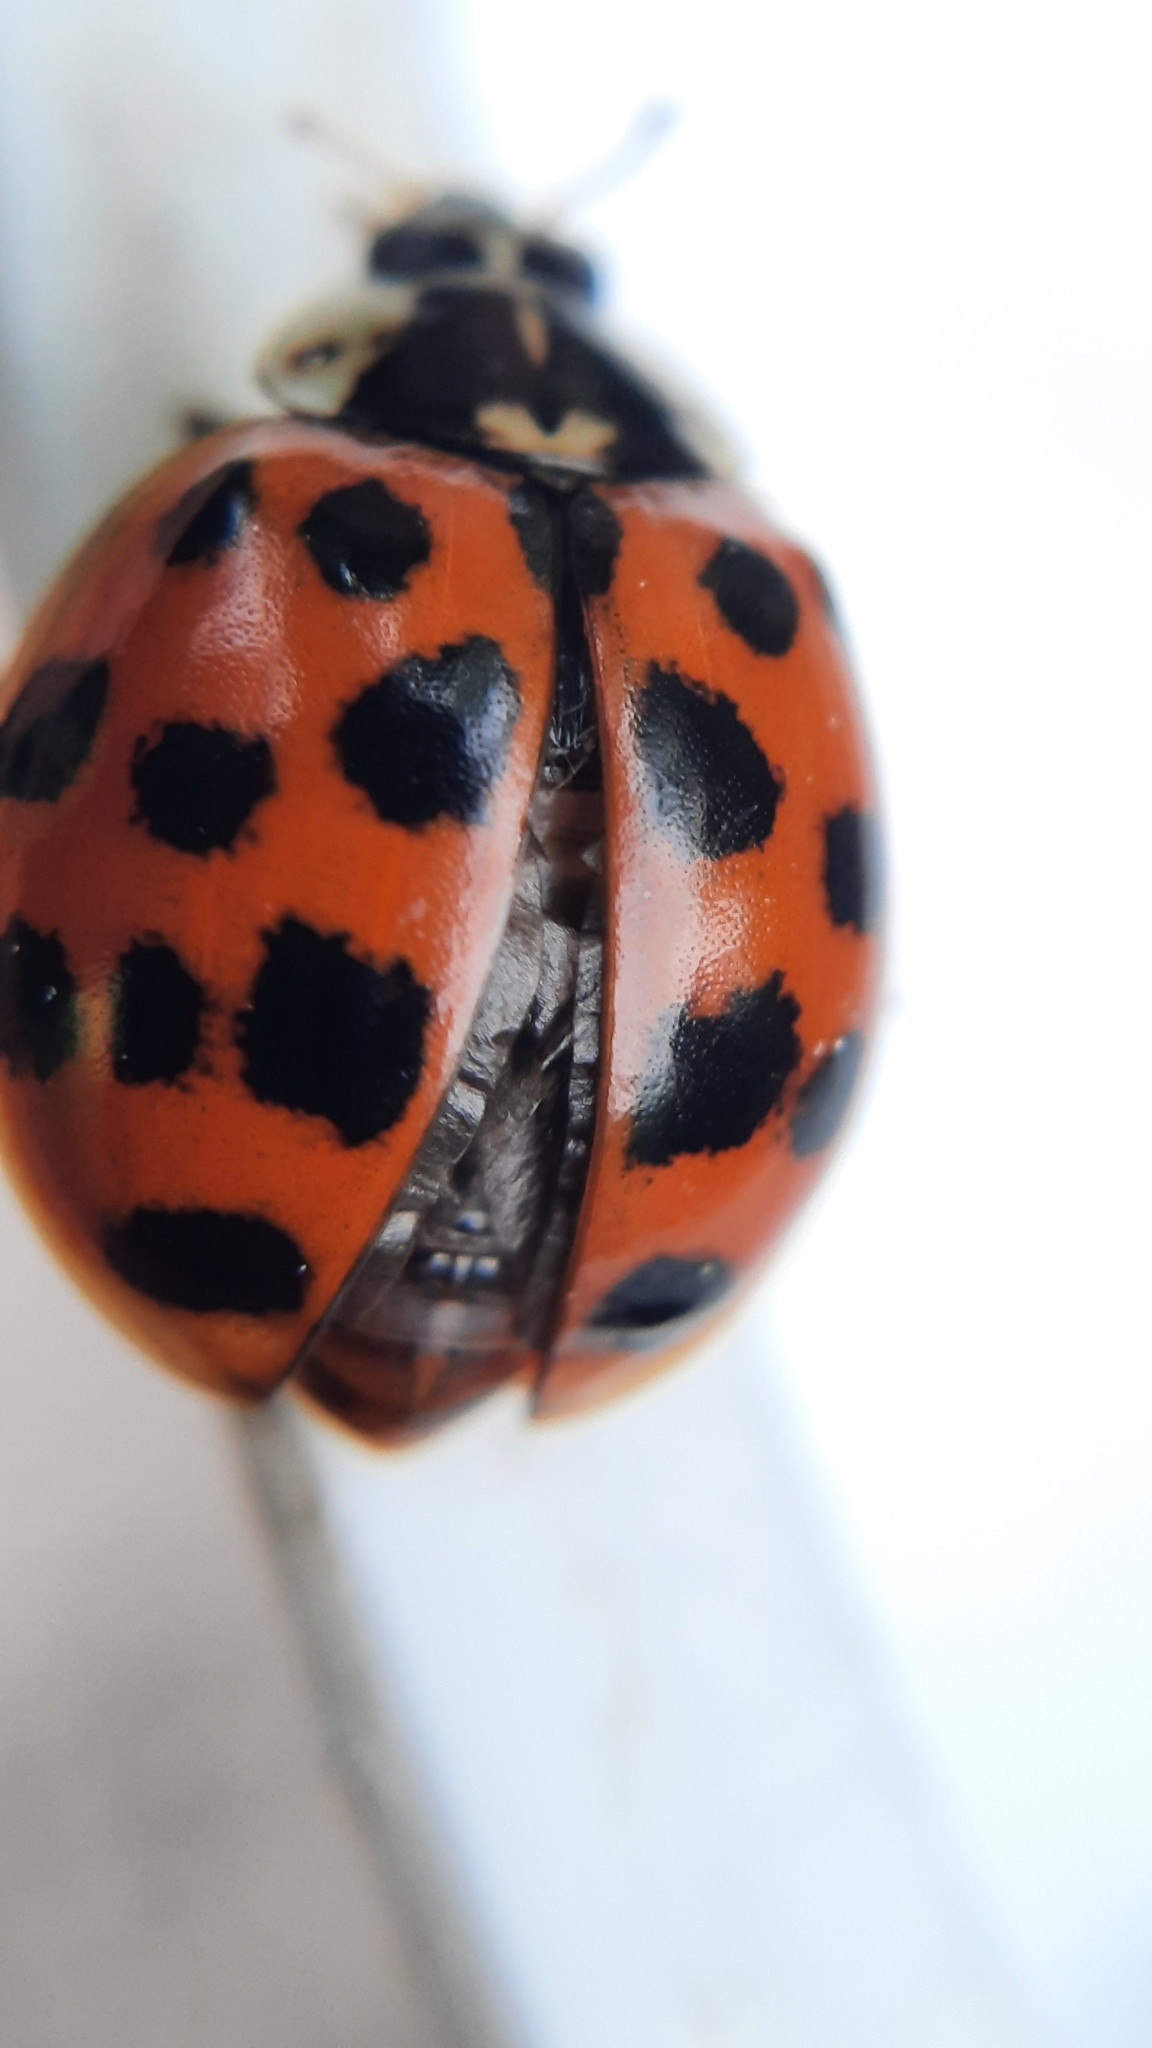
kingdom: Animalia
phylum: Arthropoda
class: Insecta
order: Coleoptera
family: Coccinellidae
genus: Harmonia
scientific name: Harmonia axyridis
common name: Harlequin ladybird
